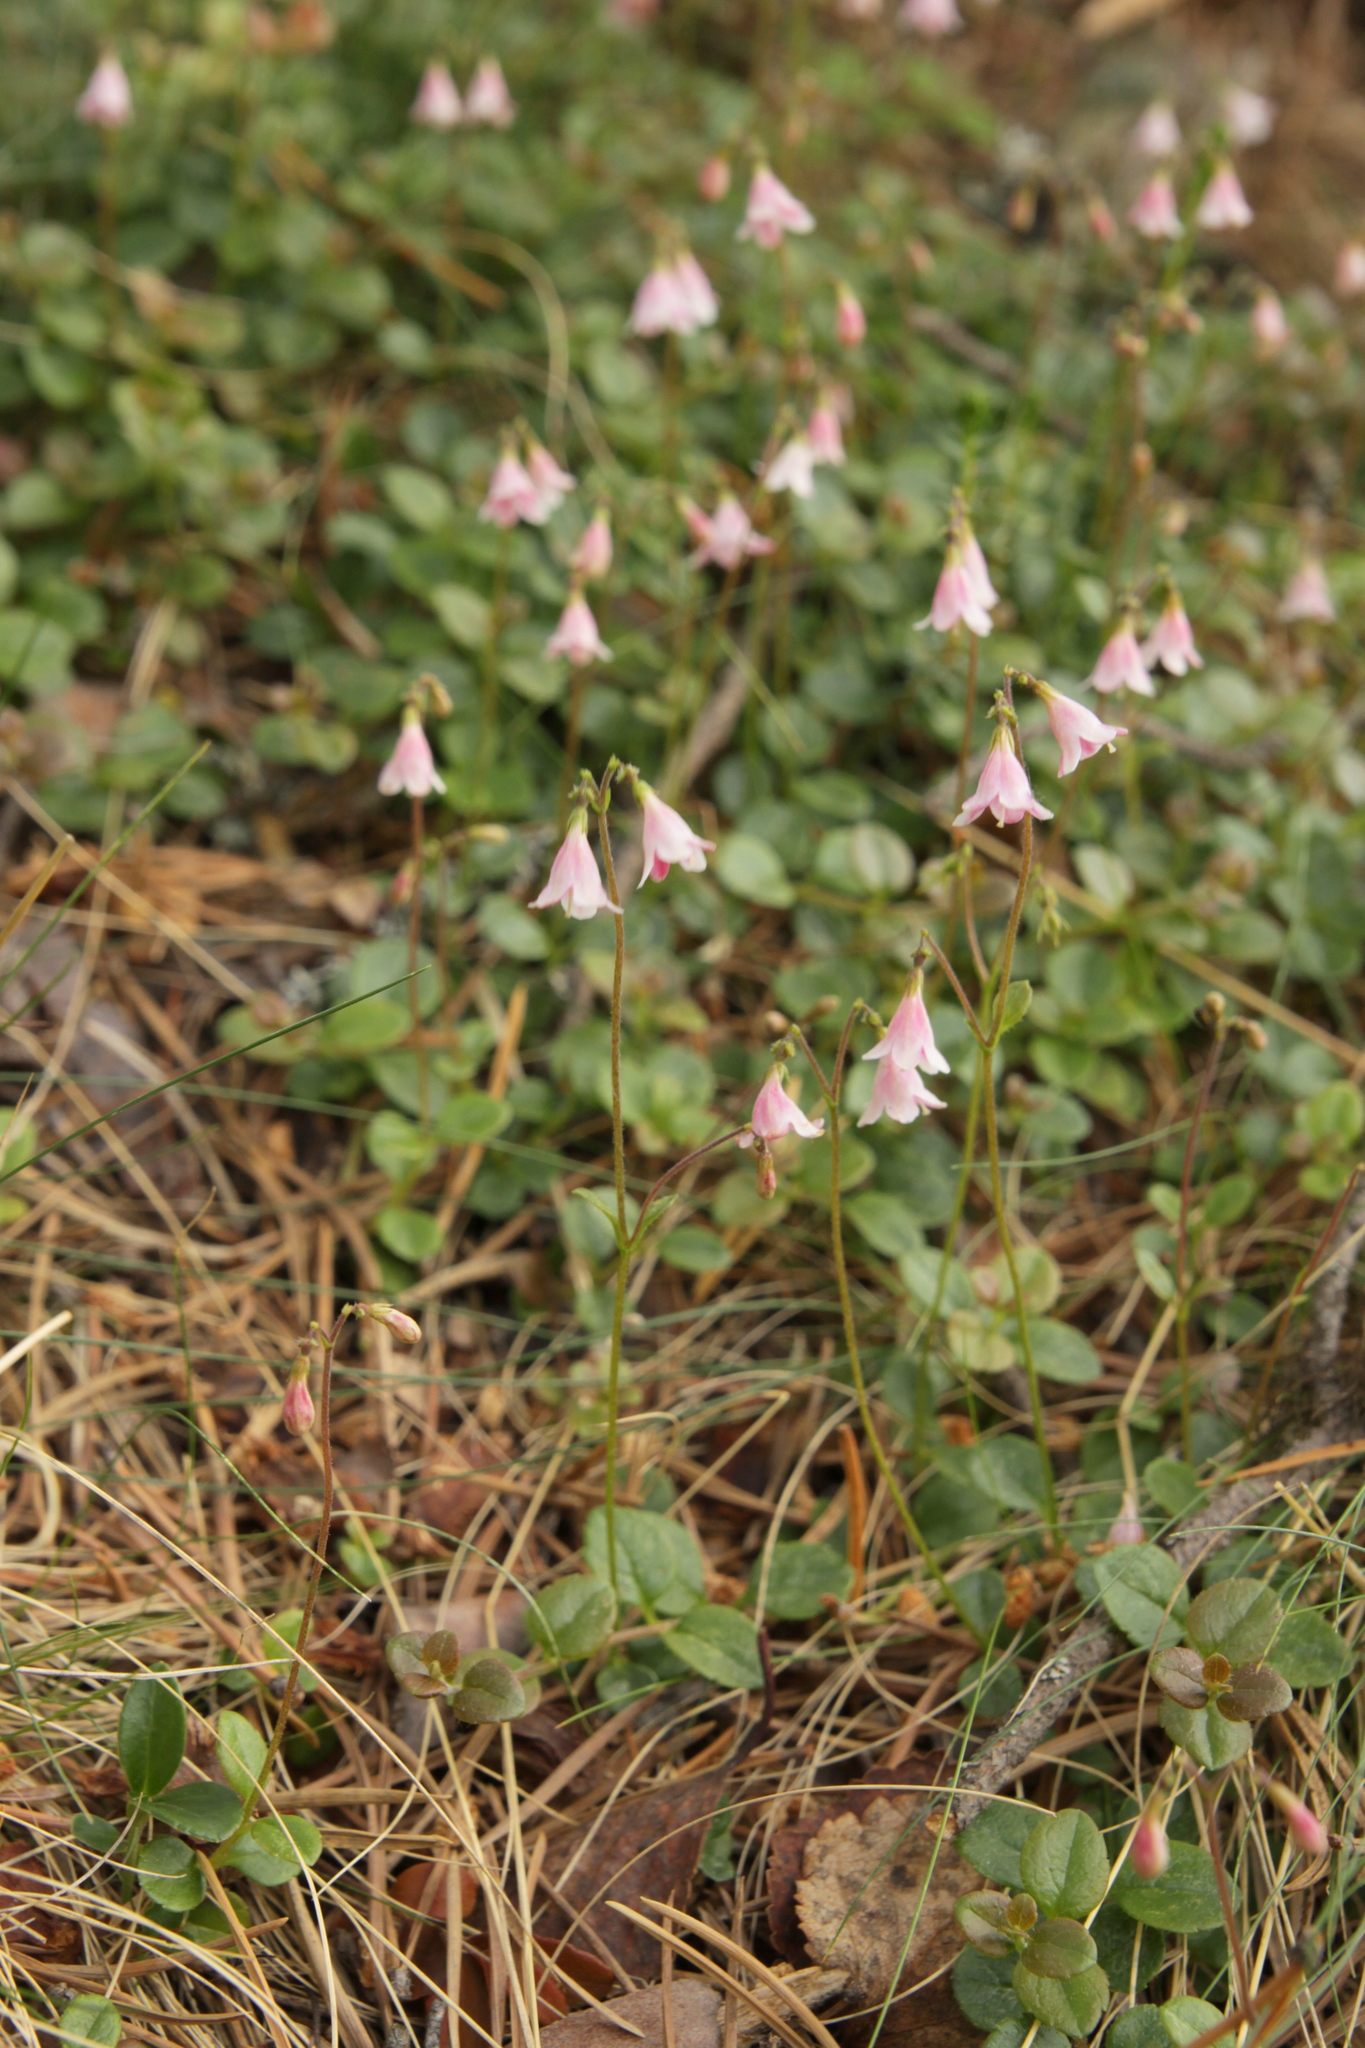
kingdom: Plantae
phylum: Tracheophyta
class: Magnoliopsida
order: Dipsacales
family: Caprifoliaceae
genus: Linnaea
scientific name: Linnaea borealis
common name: Twinflower
